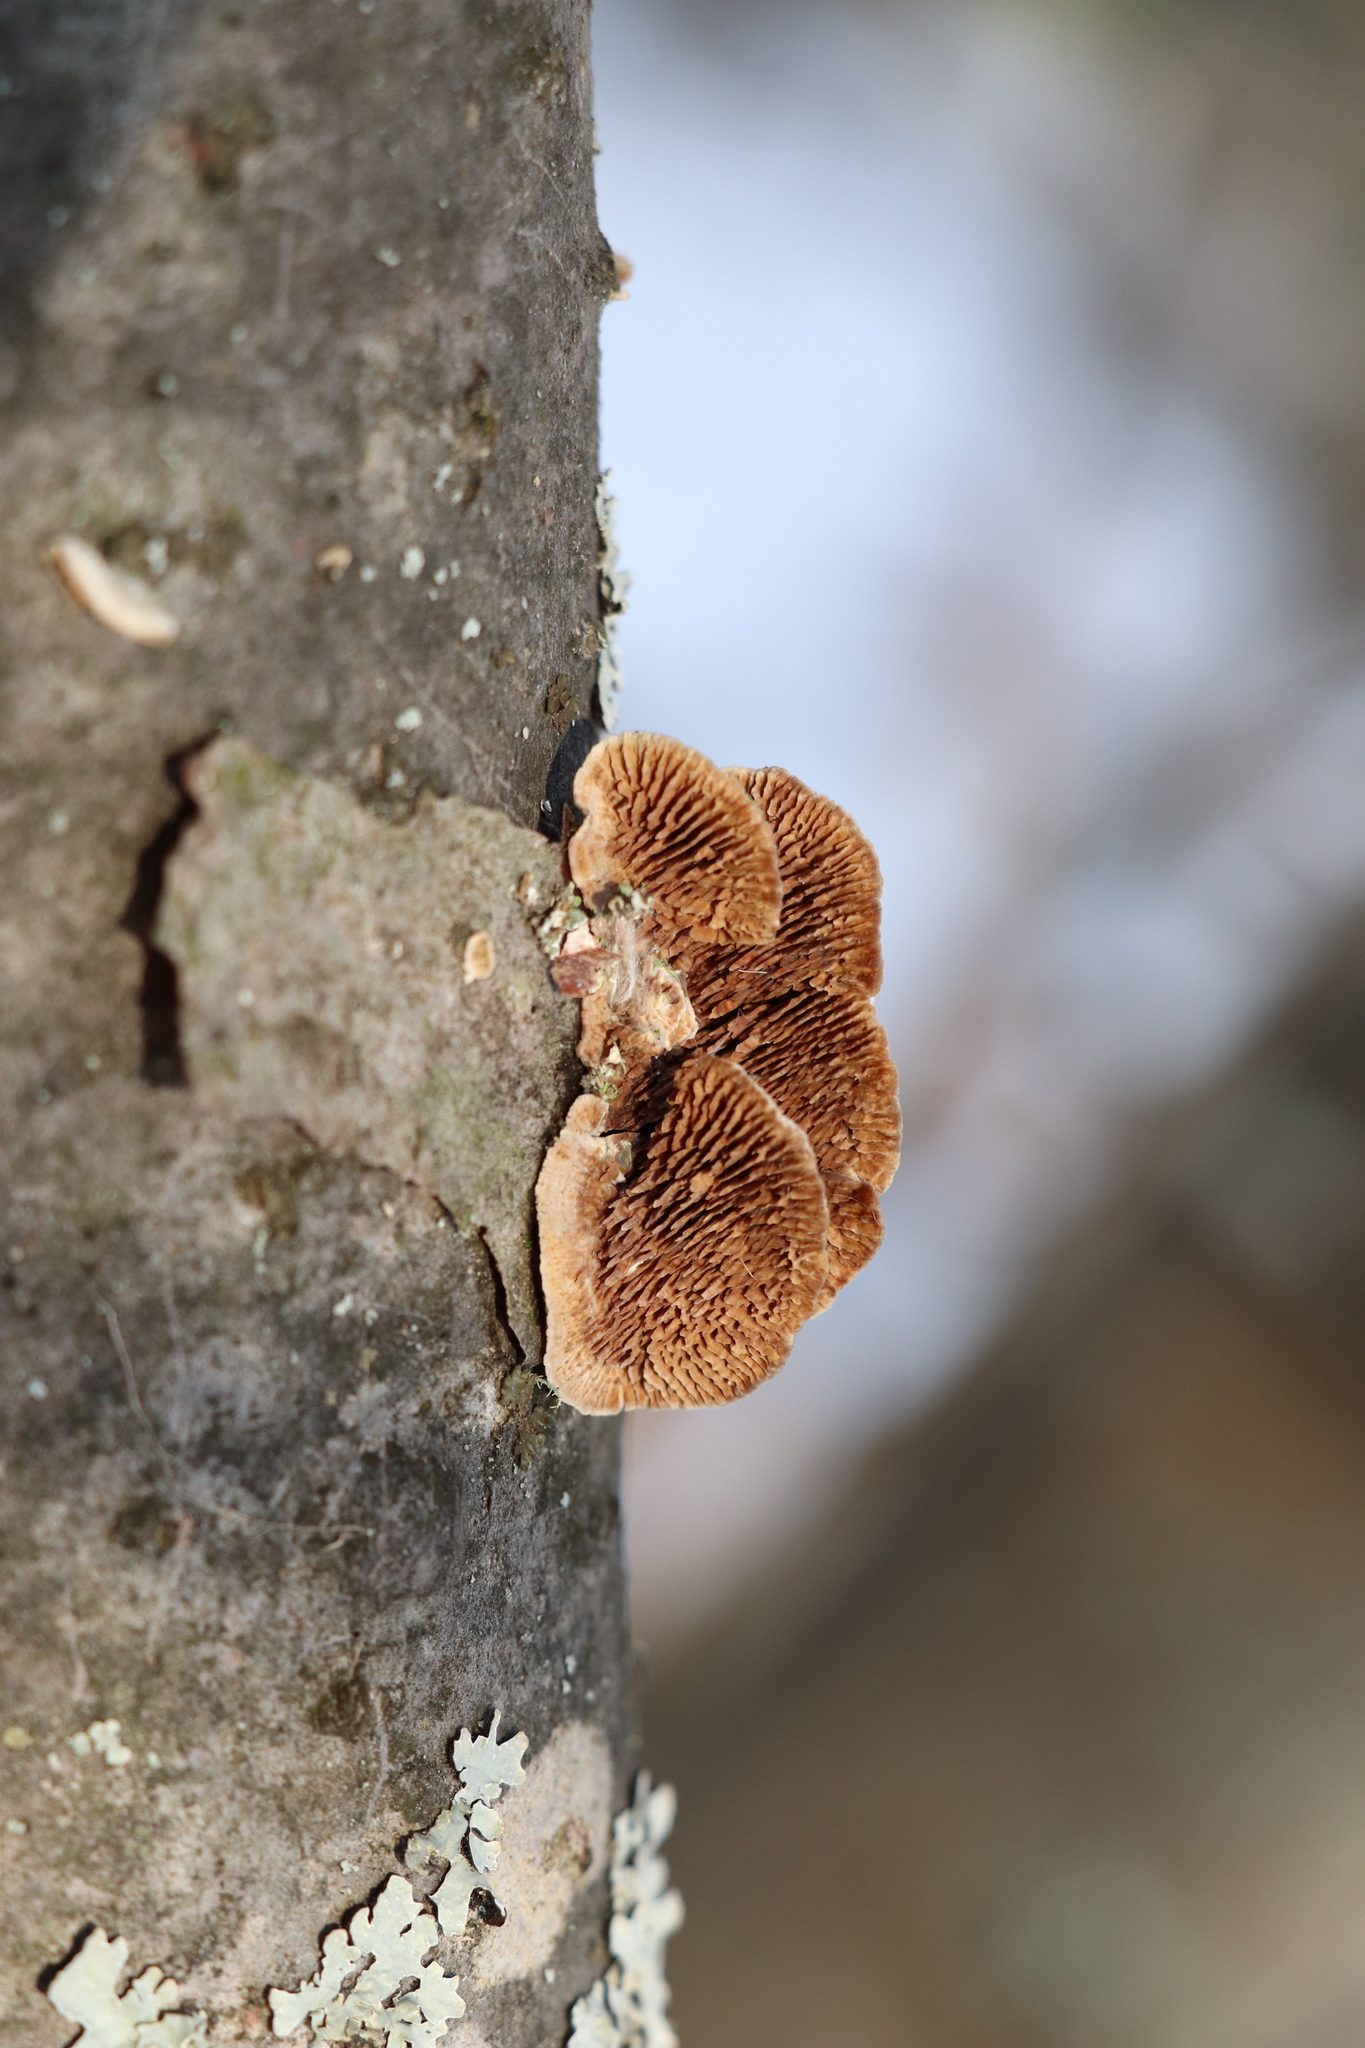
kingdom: Fungi
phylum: Basidiomycota
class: Agaricomycetes
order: Hymenochaetales
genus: Trichaptum
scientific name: Trichaptum fuscoviolaceum
